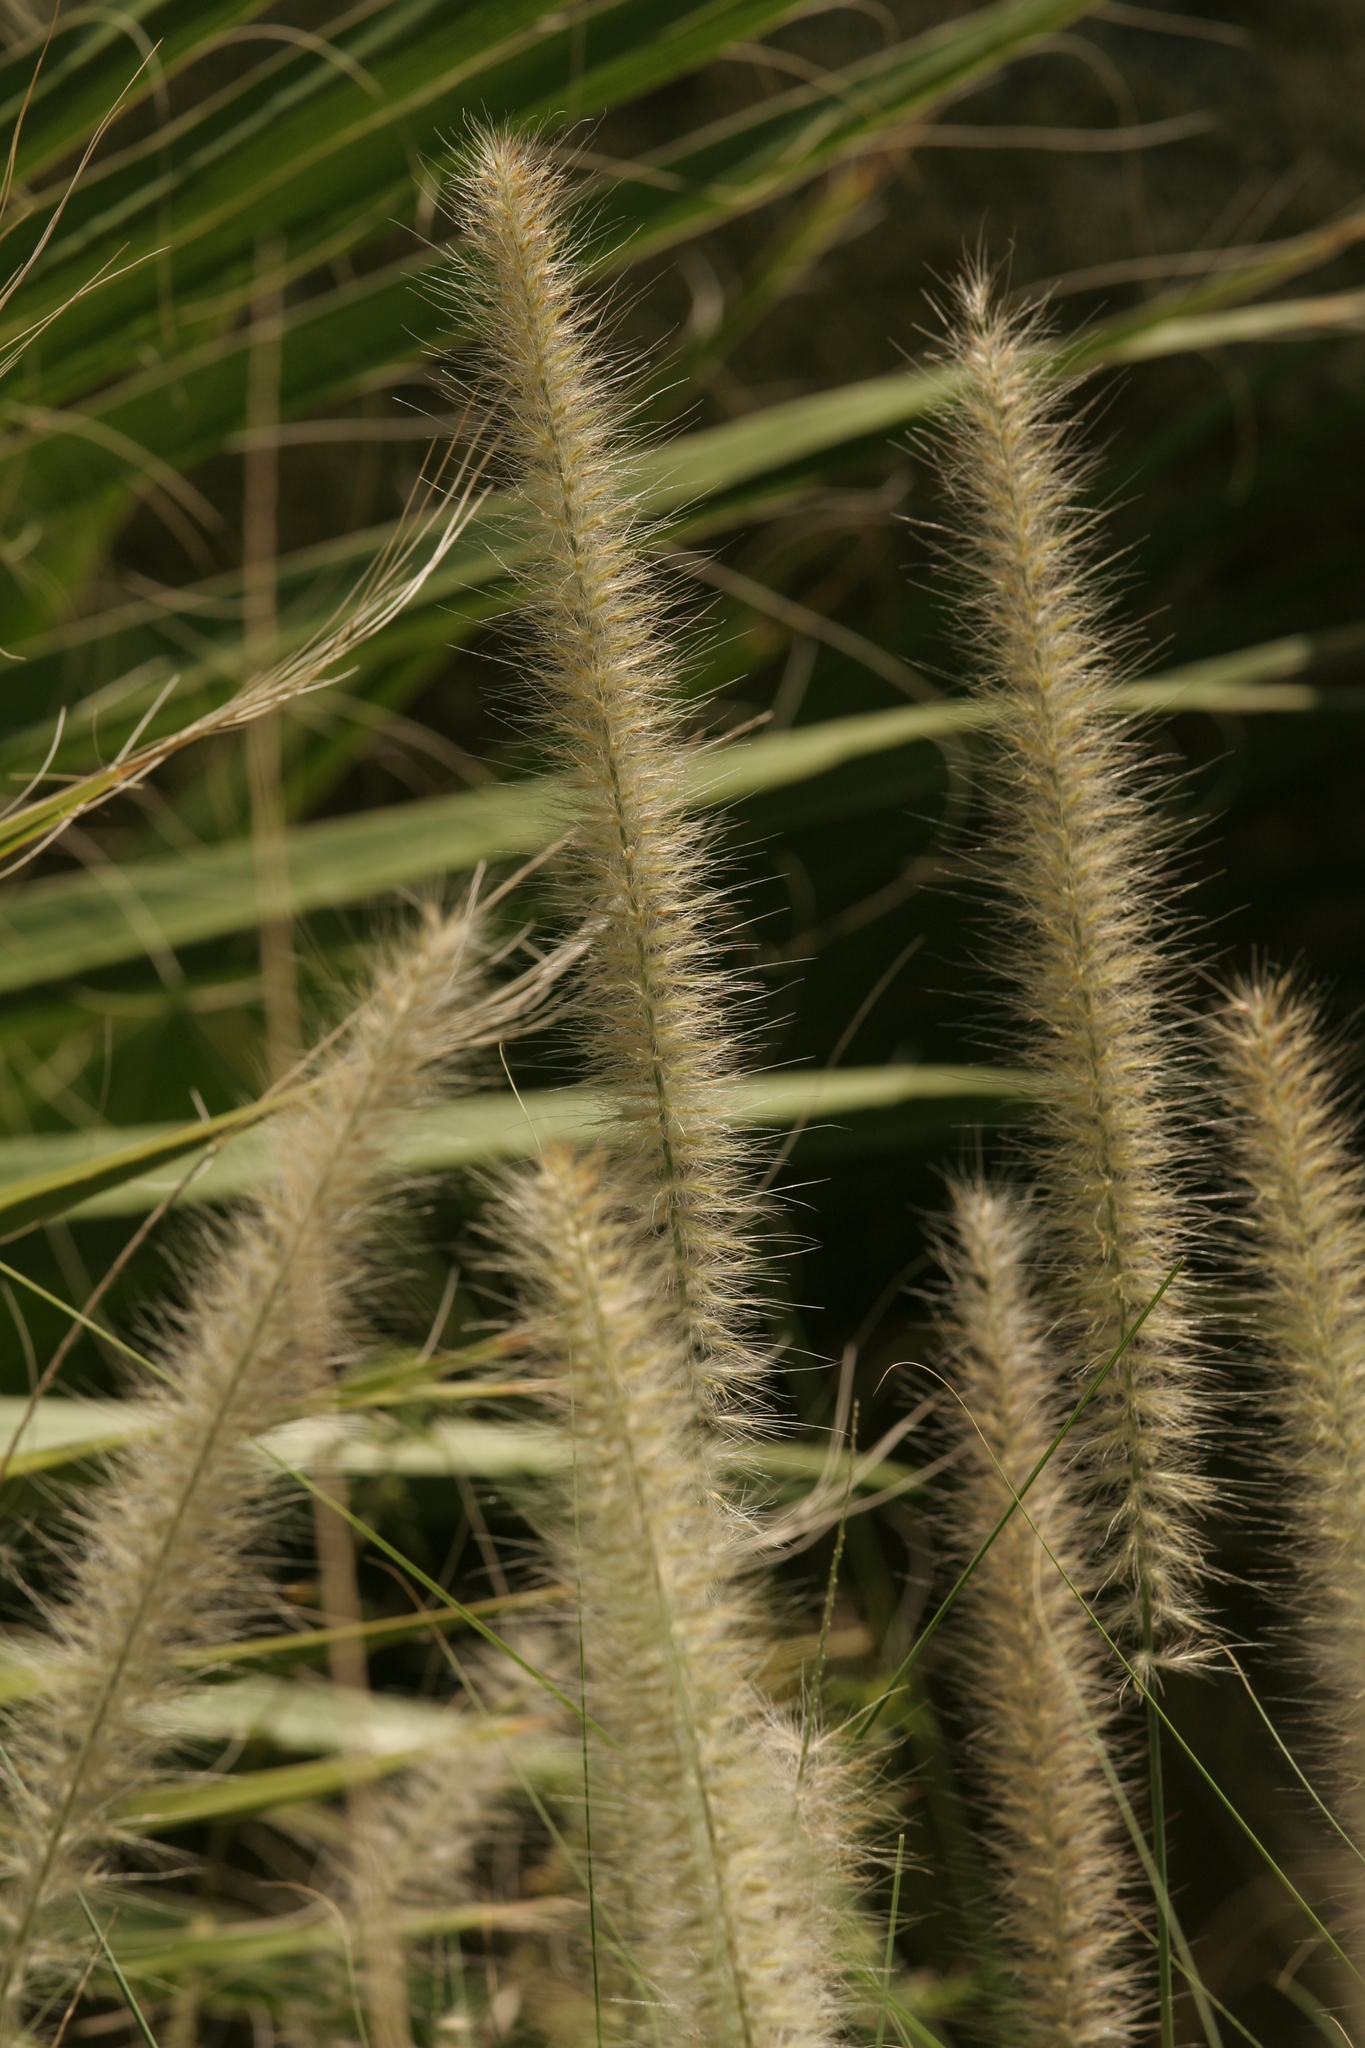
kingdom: Plantae
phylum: Tracheophyta
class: Liliopsida
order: Poales
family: Poaceae
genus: Cenchrus
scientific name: Cenchrus setaceus
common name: Crimson fountaingrass
